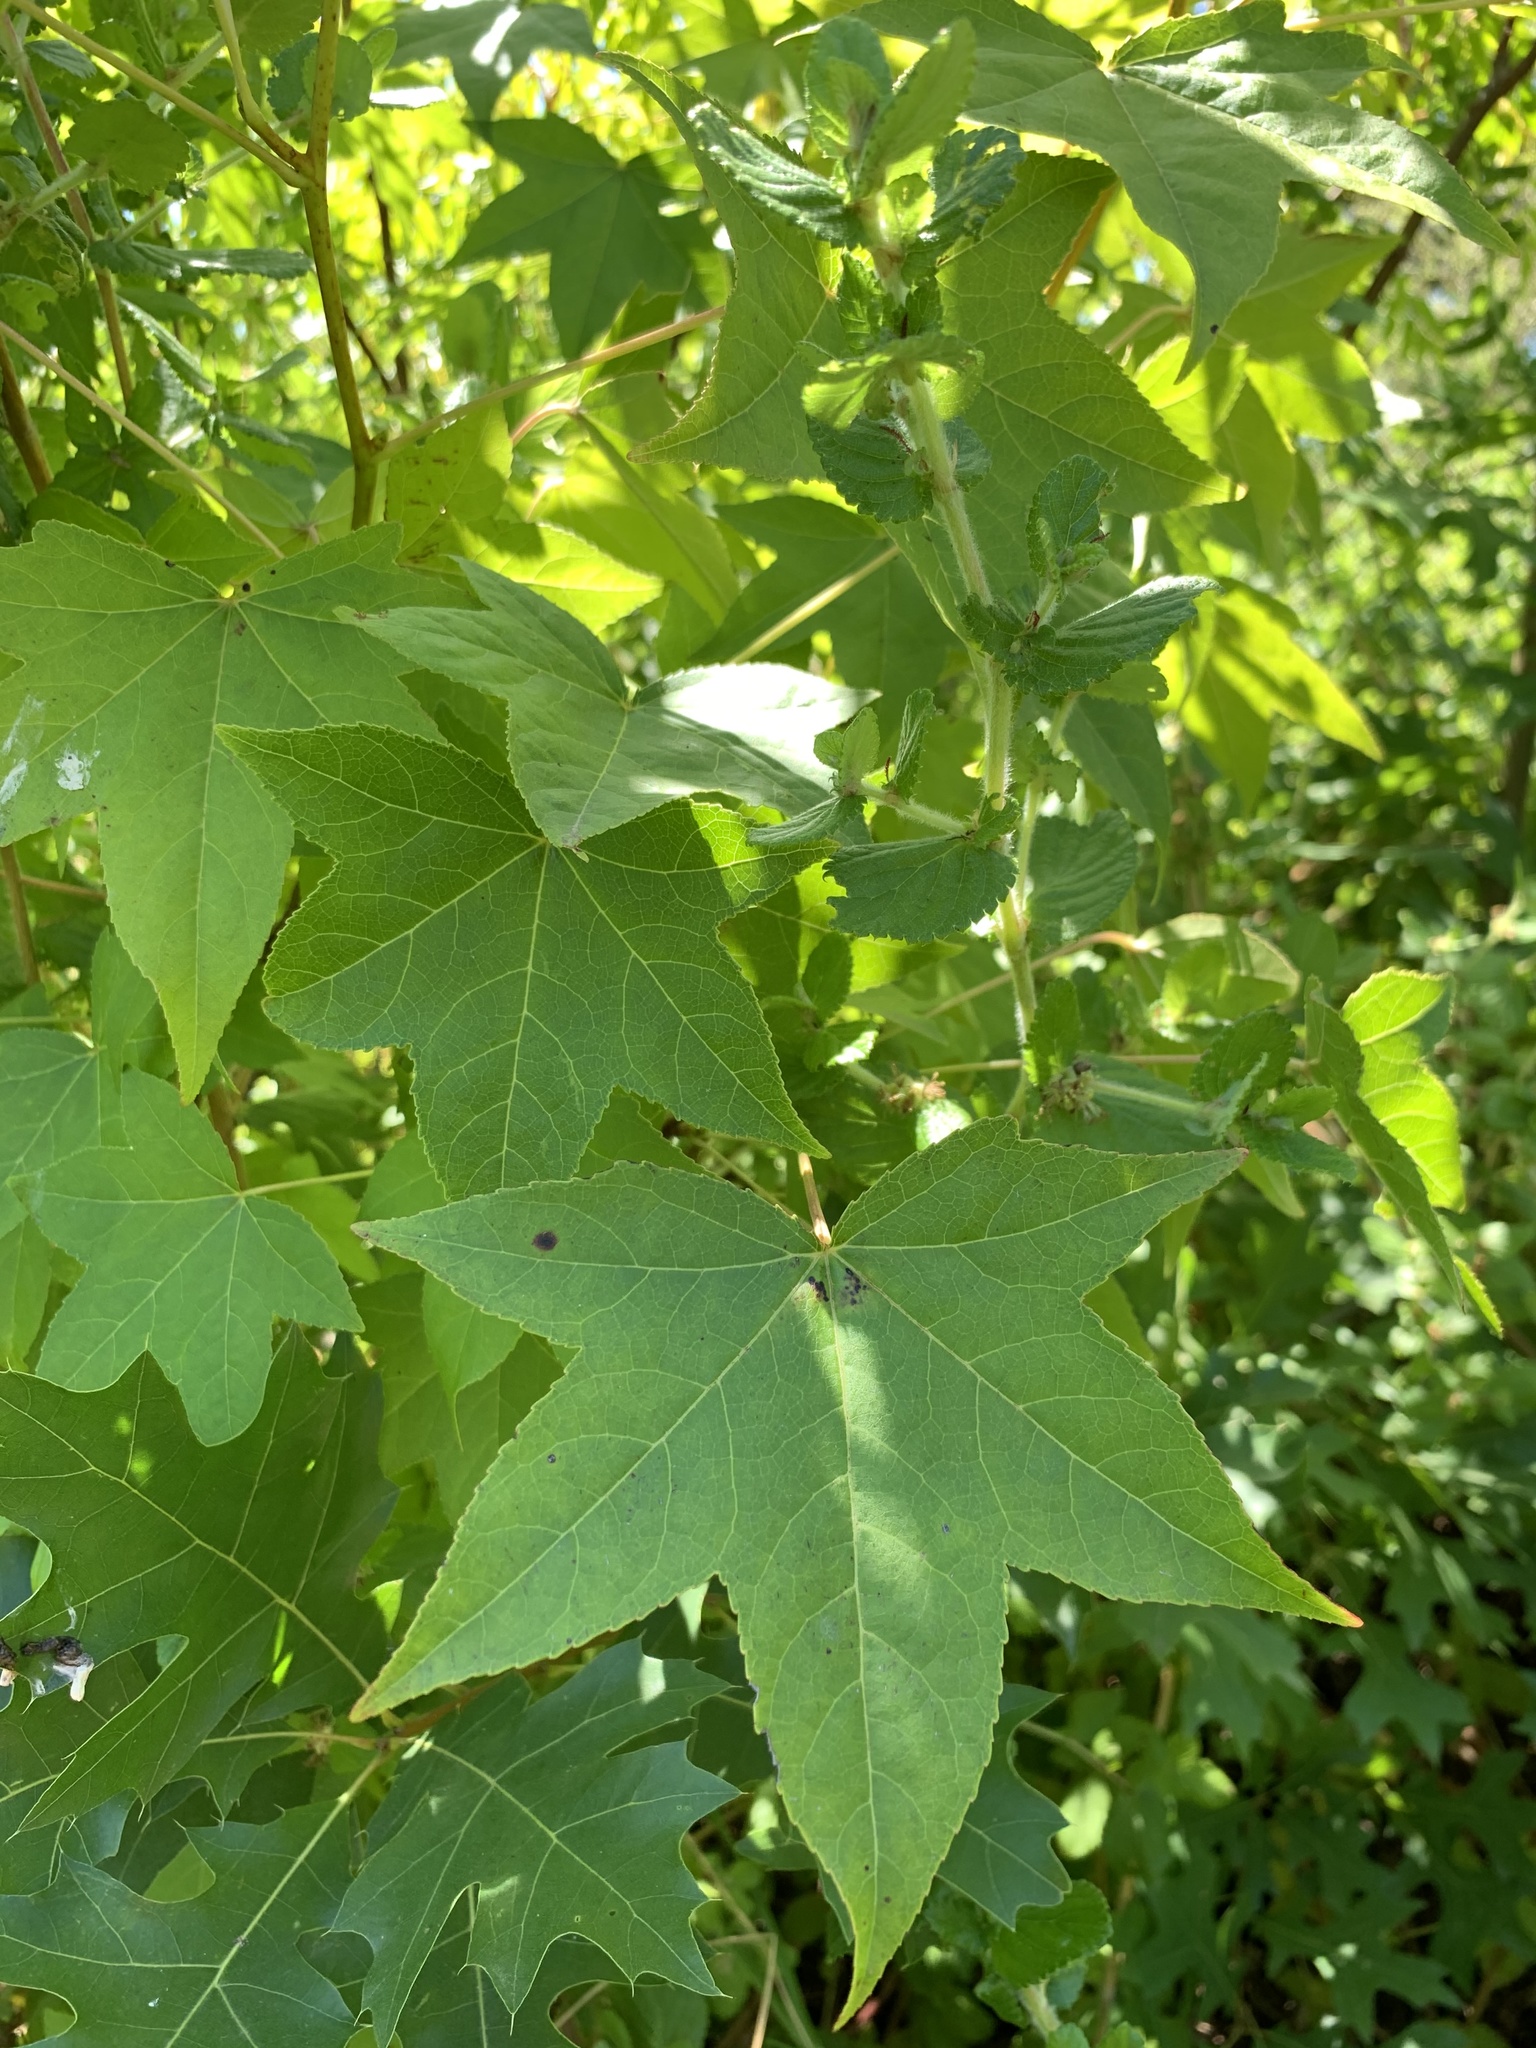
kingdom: Plantae
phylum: Tracheophyta
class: Magnoliopsida
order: Saxifragales
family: Altingiaceae
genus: Liquidambar
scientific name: Liquidambar styraciflua
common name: Sweet gum
